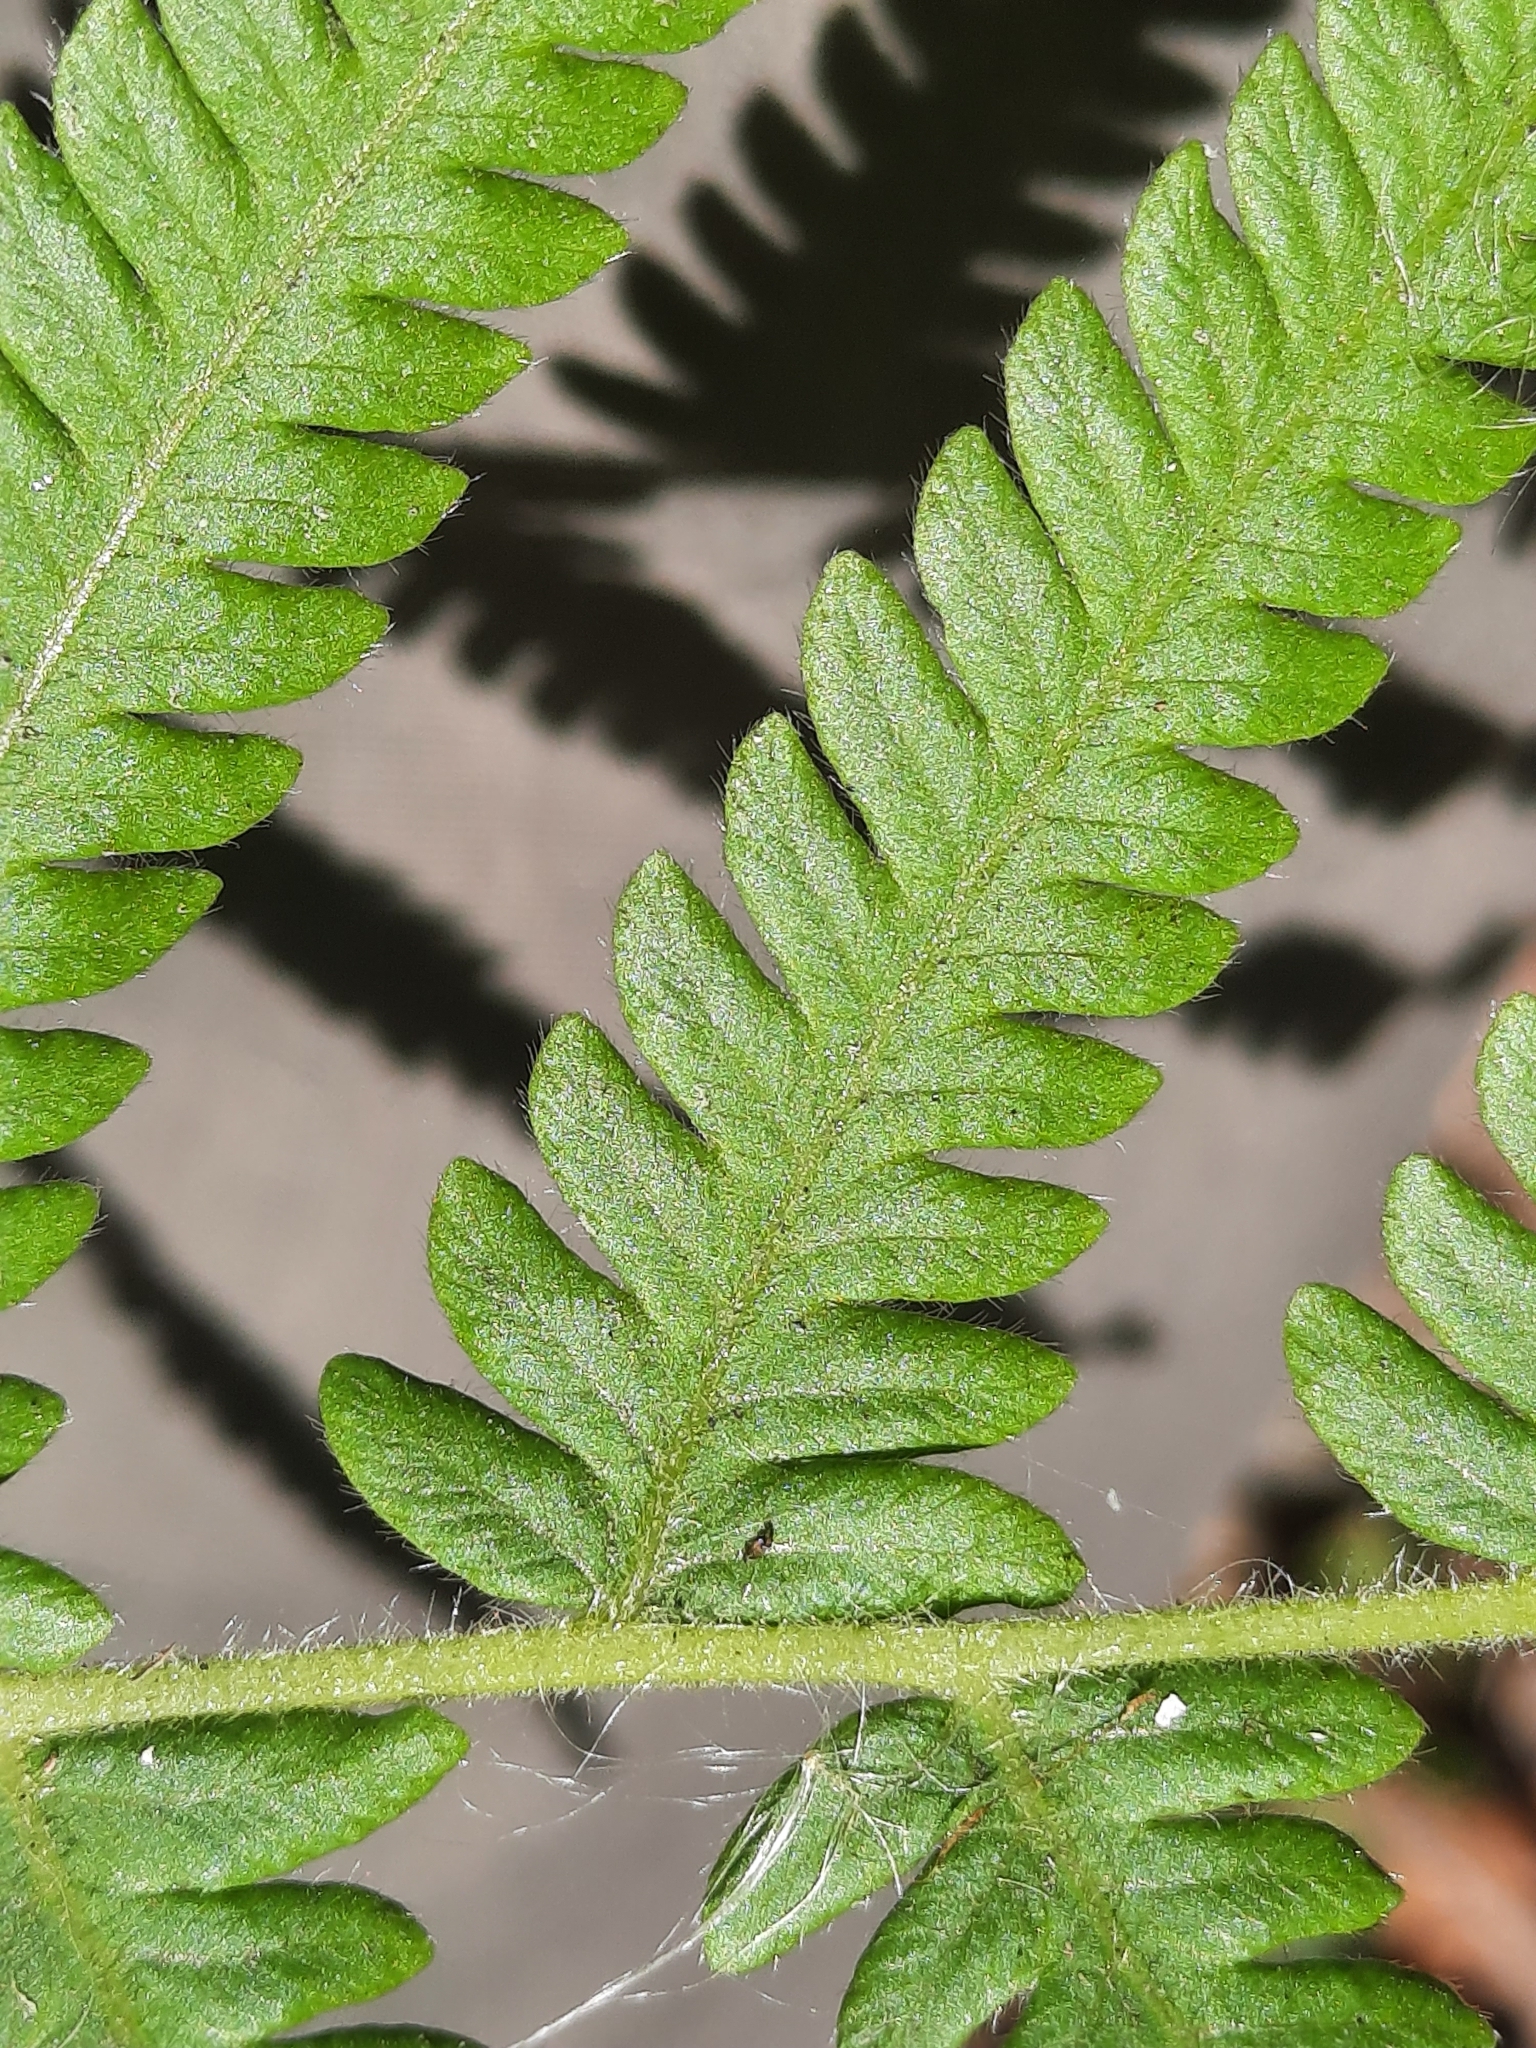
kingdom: Plantae
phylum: Tracheophyta
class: Polypodiopsida
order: Polypodiales
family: Thelypteridaceae
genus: Pelazoneuron
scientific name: Pelazoneuron kunthii
